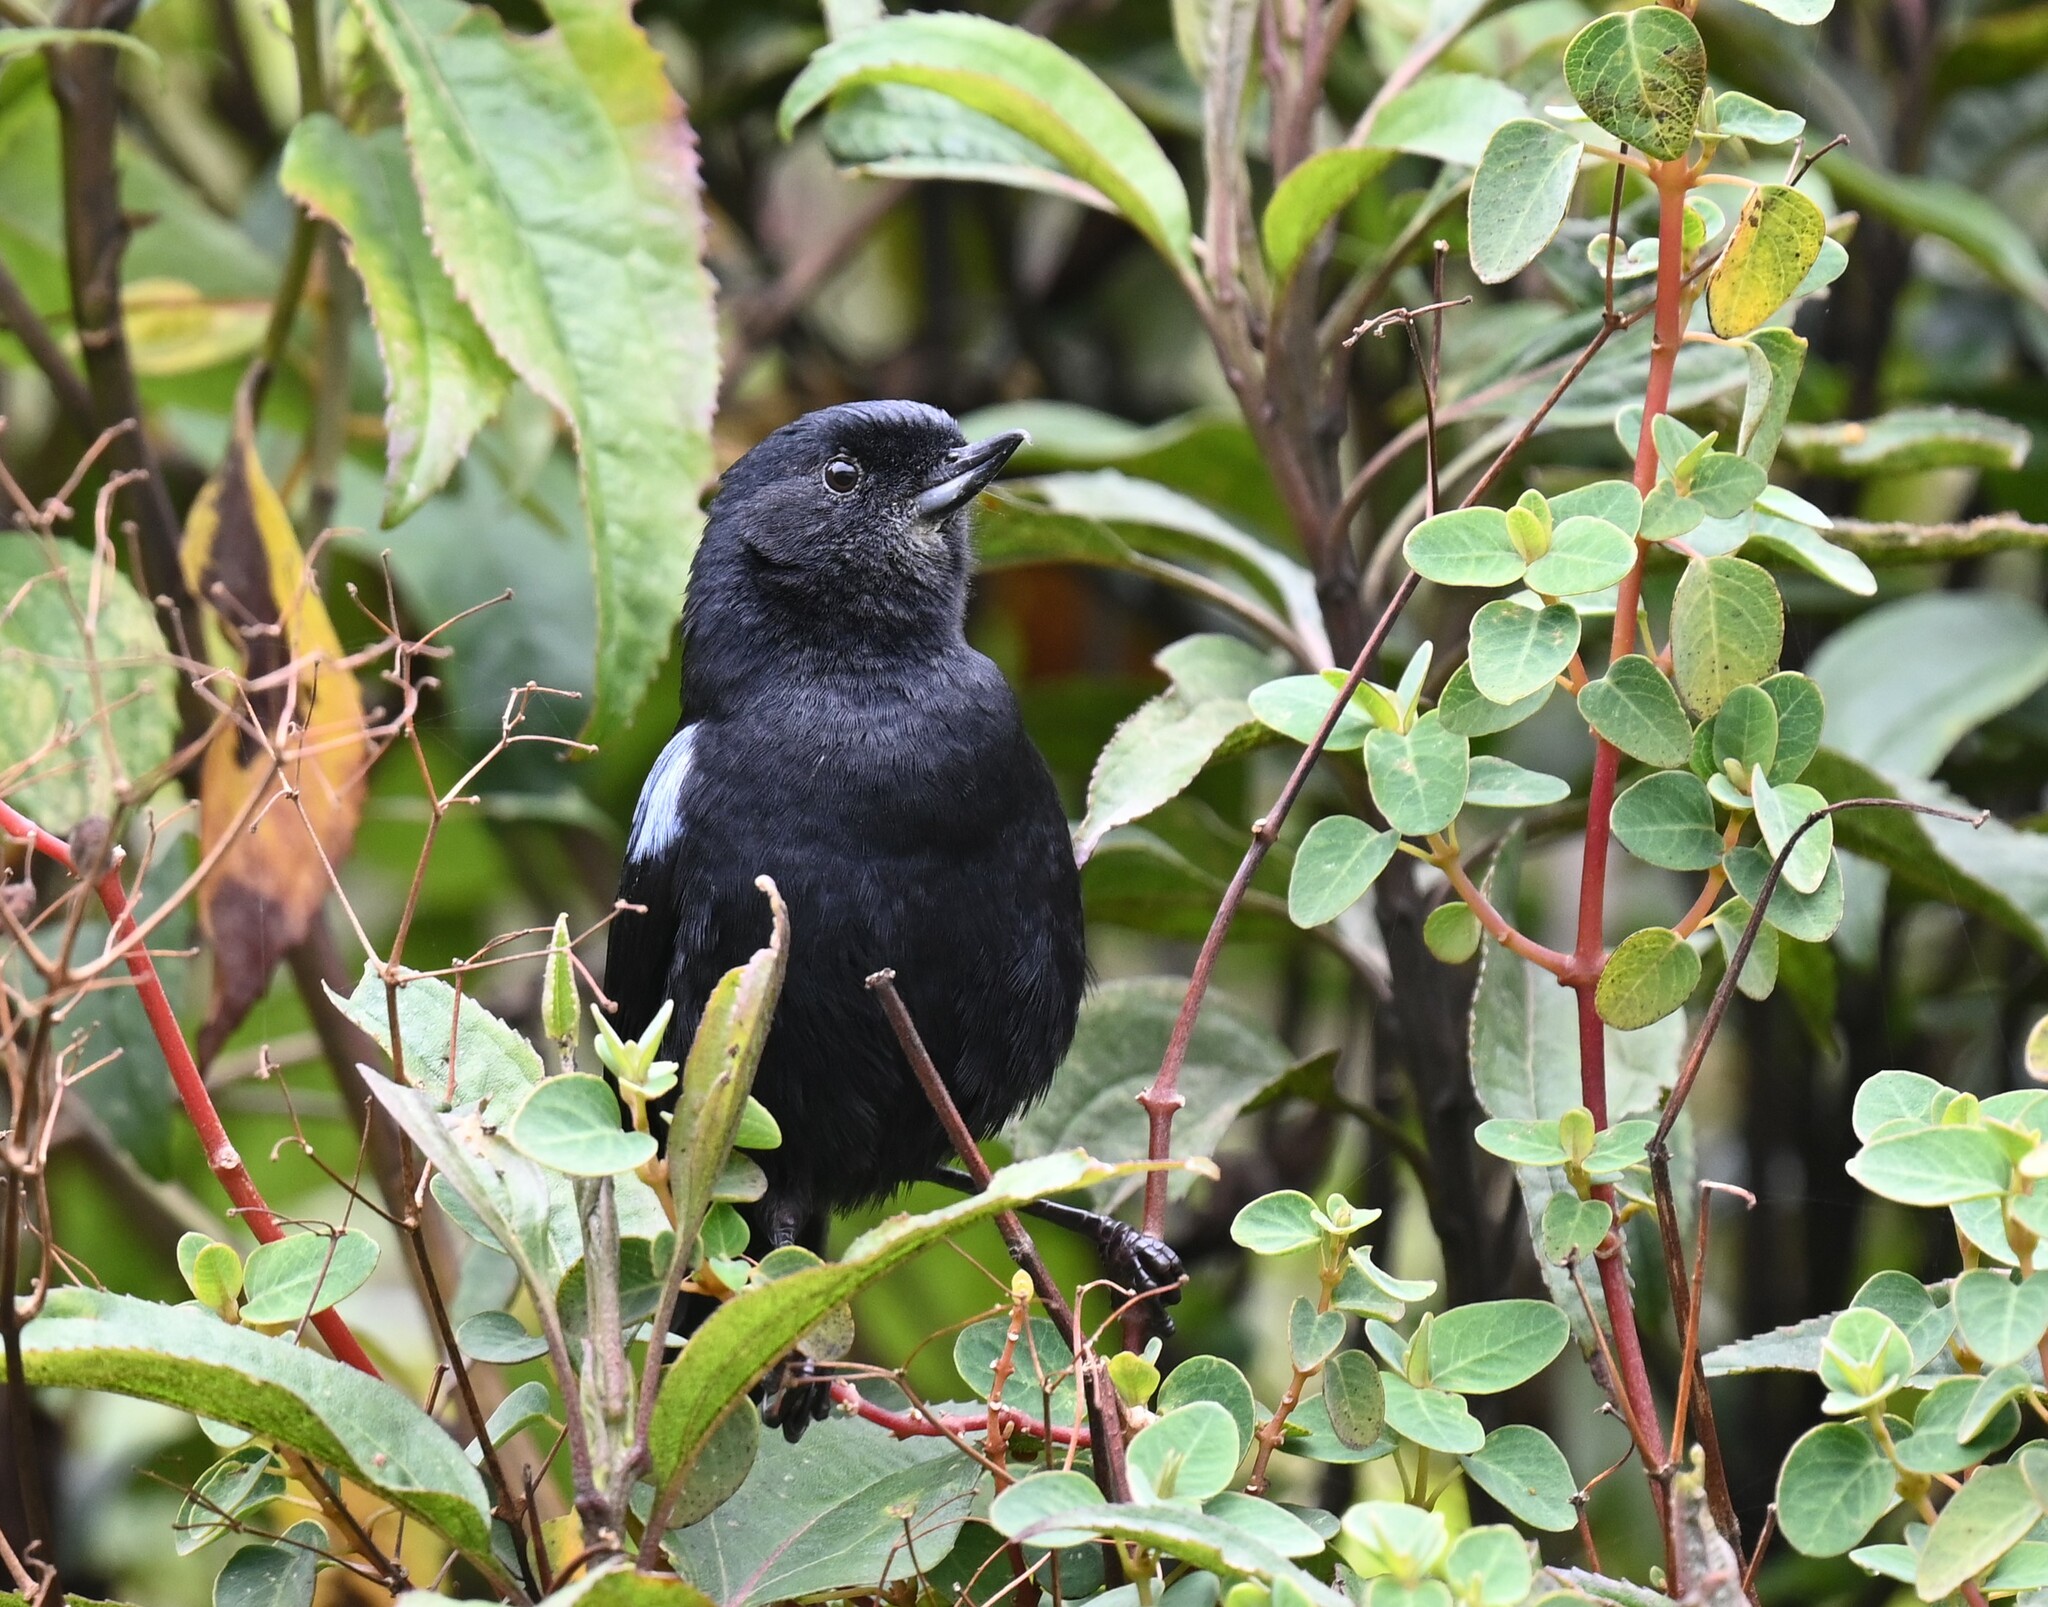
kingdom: Animalia
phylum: Chordata
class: Aves
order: Passeriformes
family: Thraupidae
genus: Diglossa
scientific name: Diglossa lafresnayii
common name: Glossy flowerpiercer
